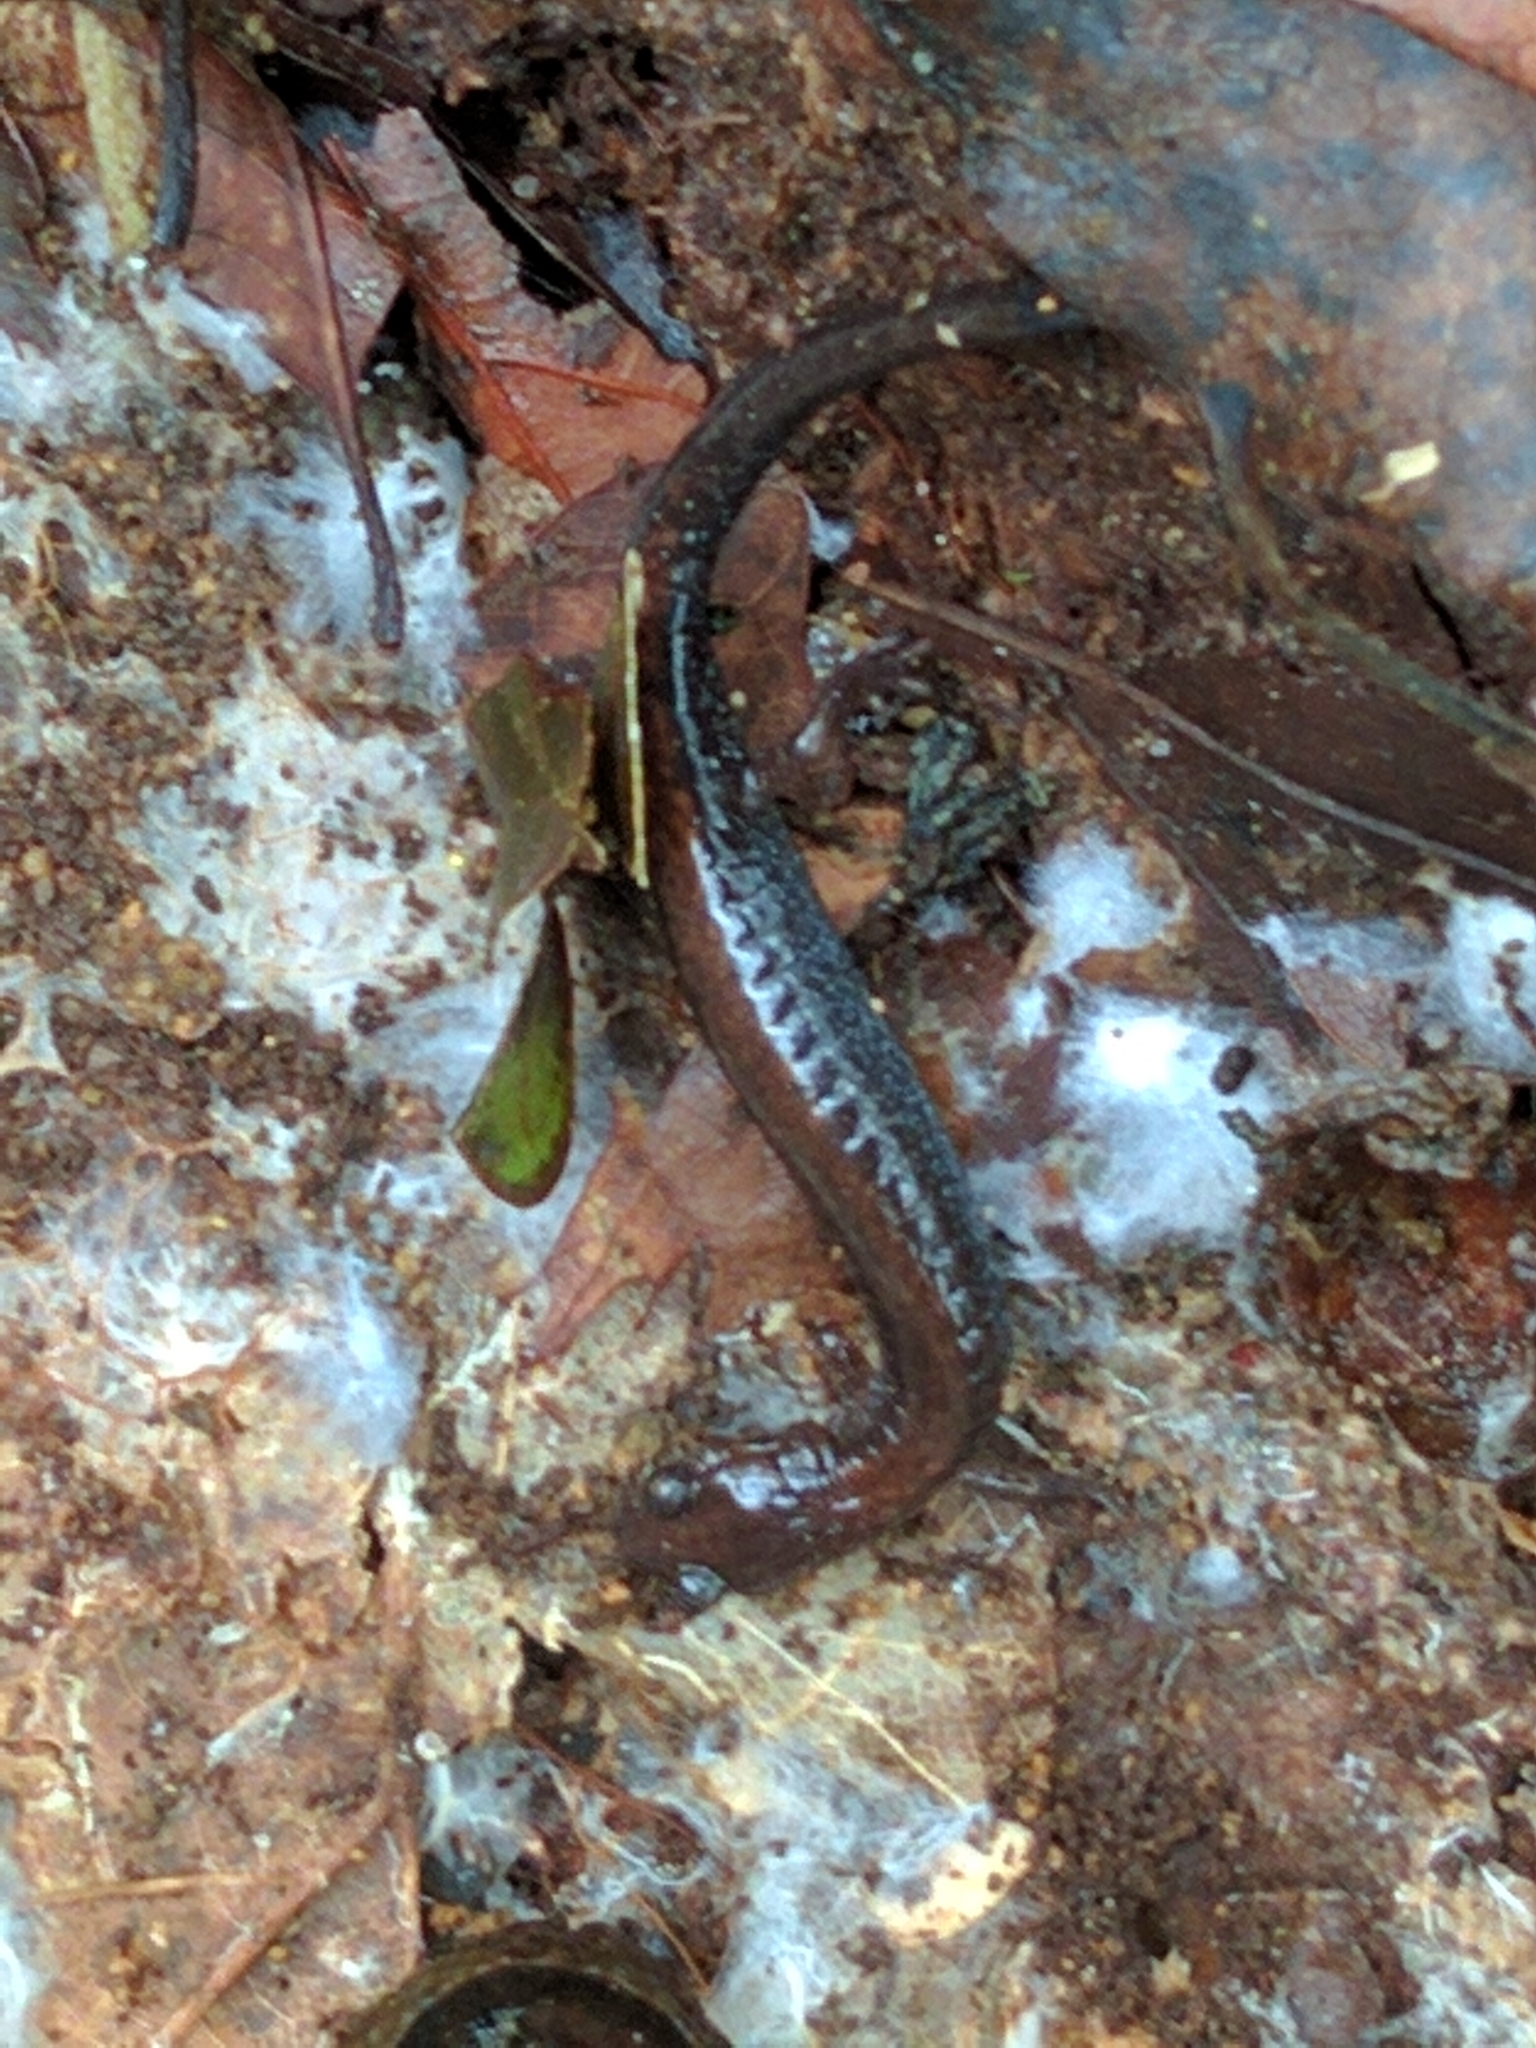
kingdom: Animalia
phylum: Chordata
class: Amphibia
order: Caudata
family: Plethodontidae
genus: Plethodon
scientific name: Plethodon cinereus
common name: Redback salamander
